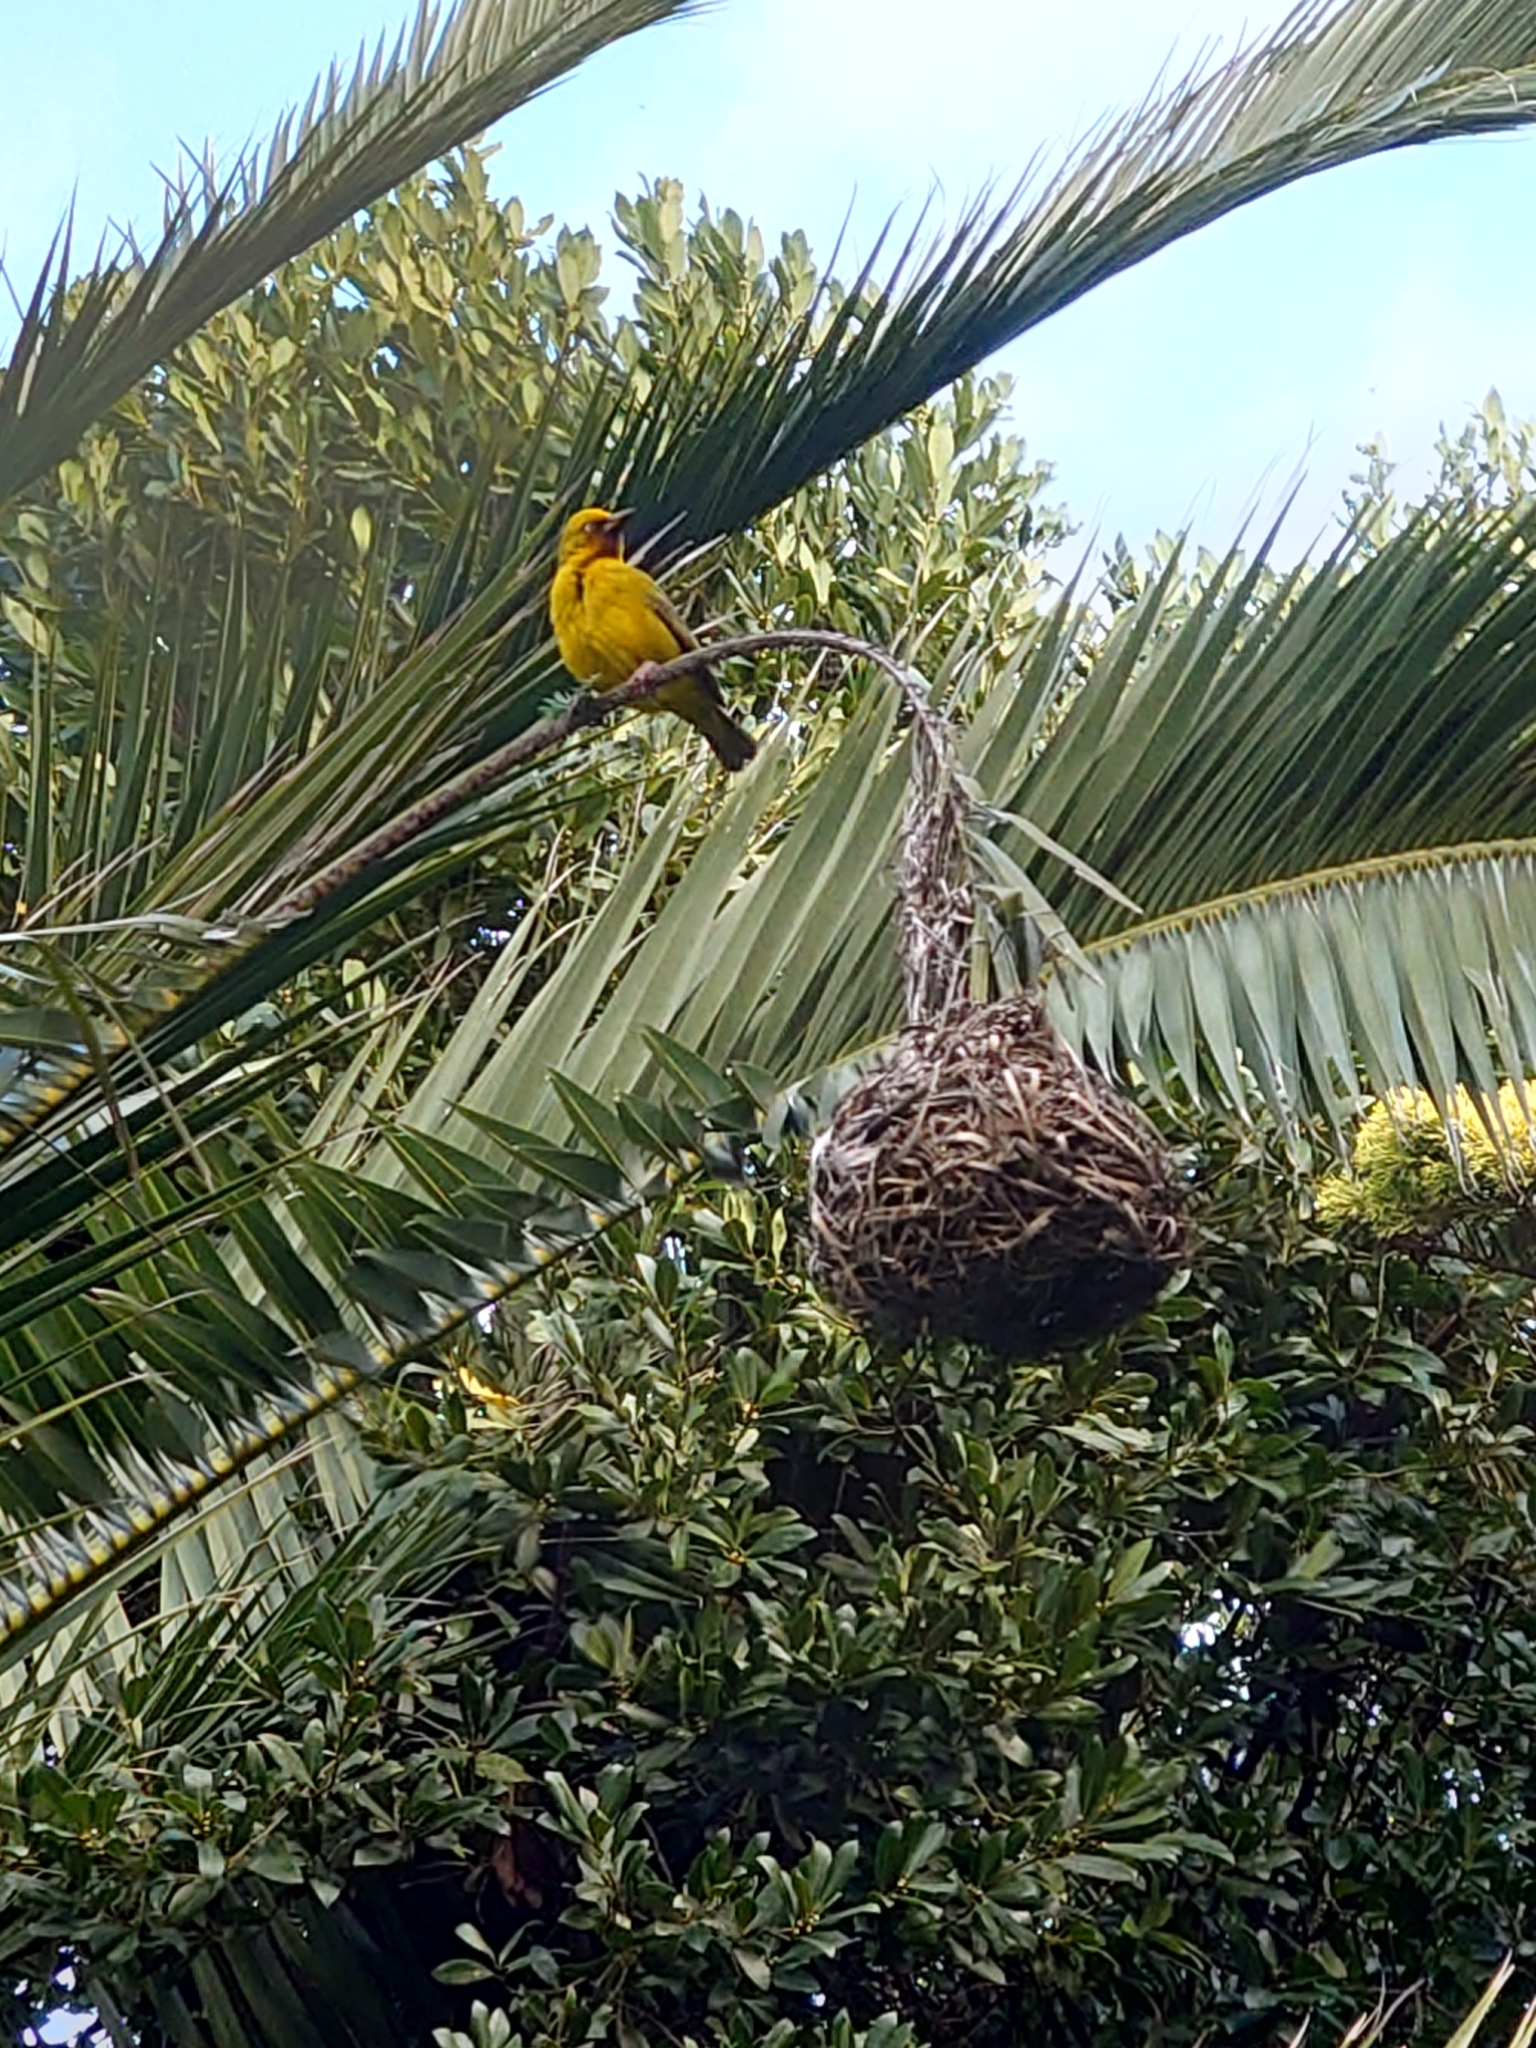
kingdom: Animalia
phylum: Chordata
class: Aves
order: Passeriformes
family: Ploceidae
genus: Ploceus
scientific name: Ploceus capensis
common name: Cape weaver
